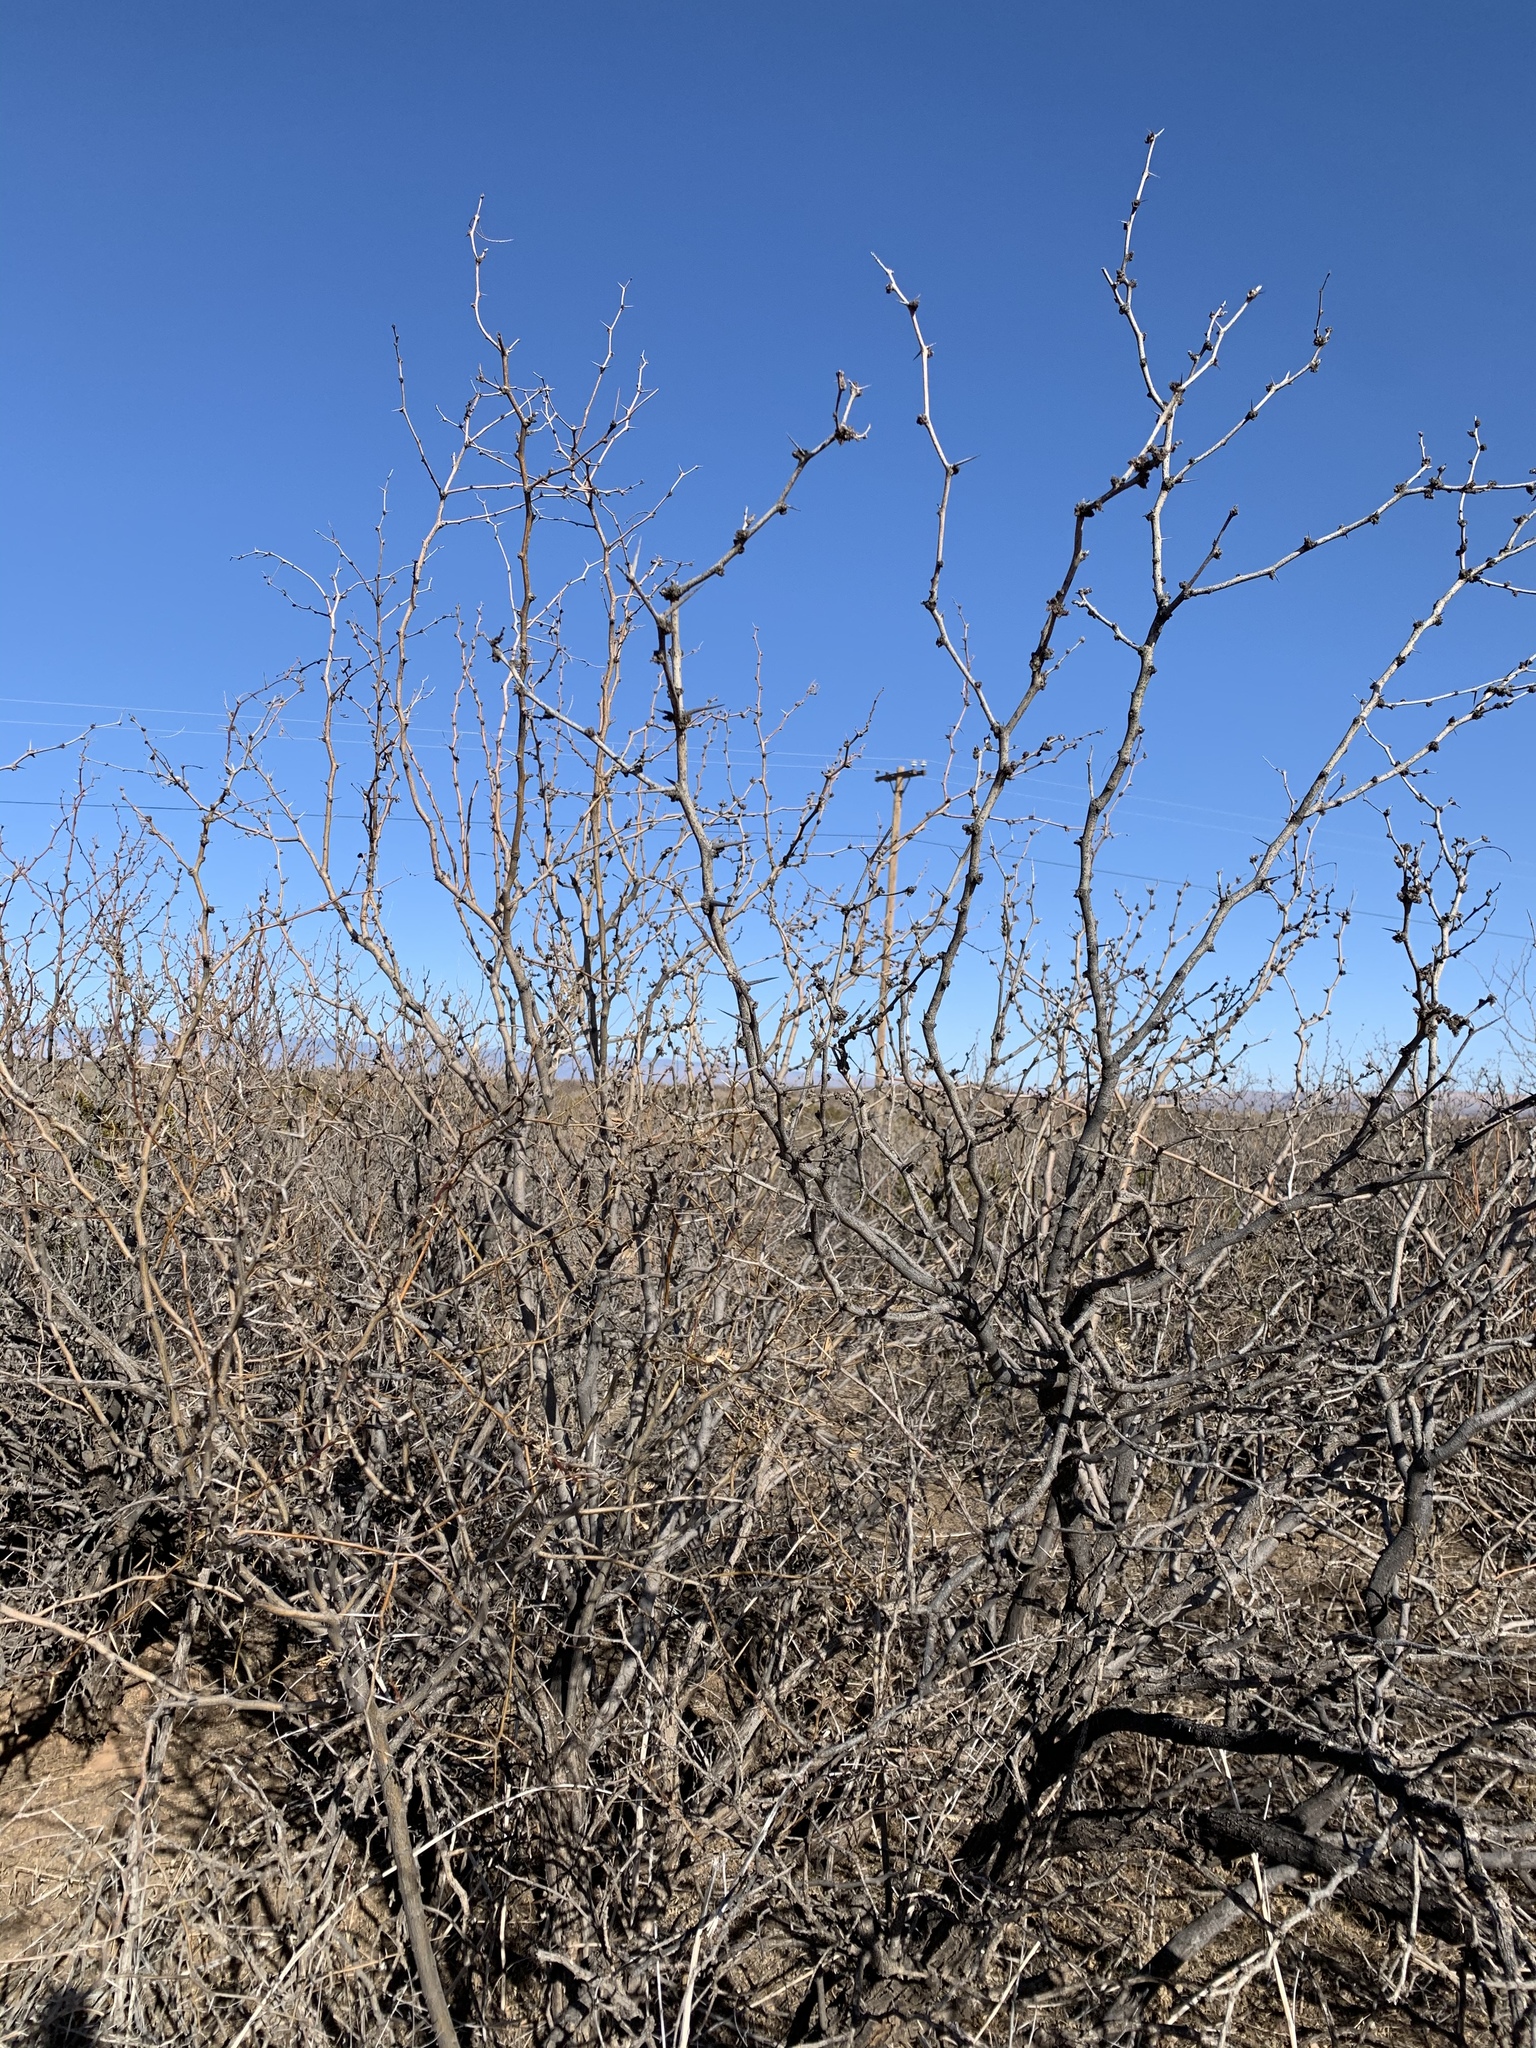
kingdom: Plantae
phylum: Tracheophyta
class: Magnoliopsida
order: Fabales
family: Fabaceae
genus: Prosopis
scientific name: Prosopis glandulosa
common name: Honey mesquite
